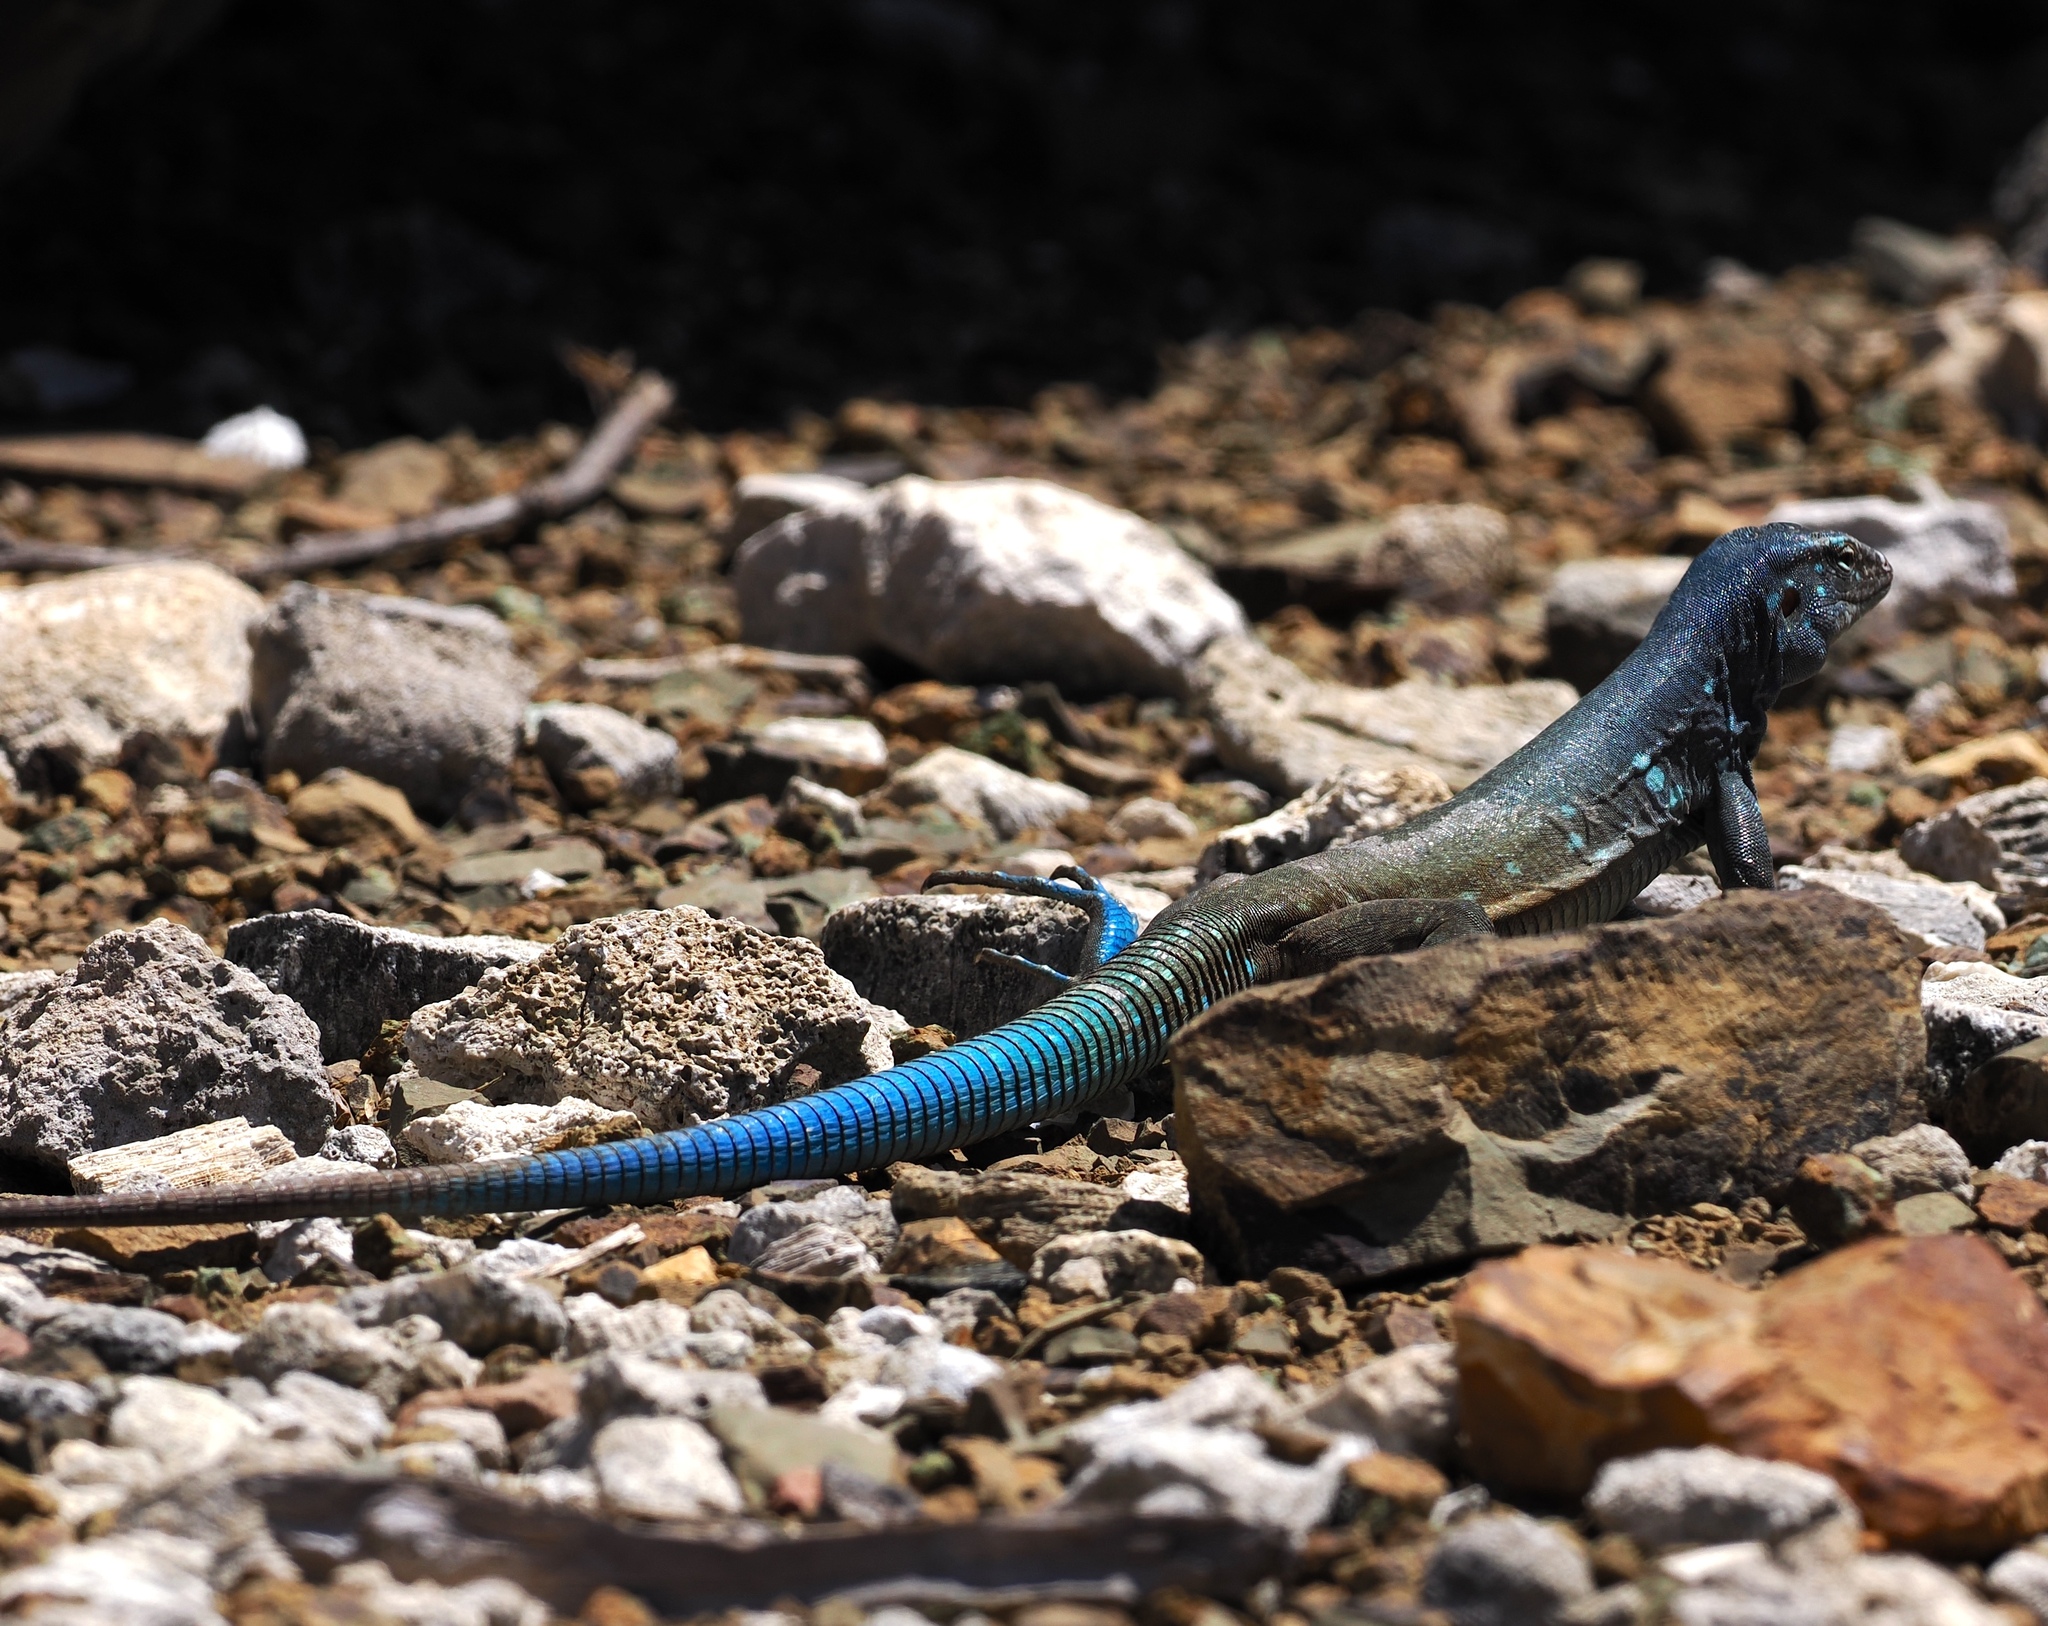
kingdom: Animalia
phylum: Chordata
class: Squamata
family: Teiidae
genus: Cnemidophorus
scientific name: Cnemidophorus ruthveni
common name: Bonaire whiptail
